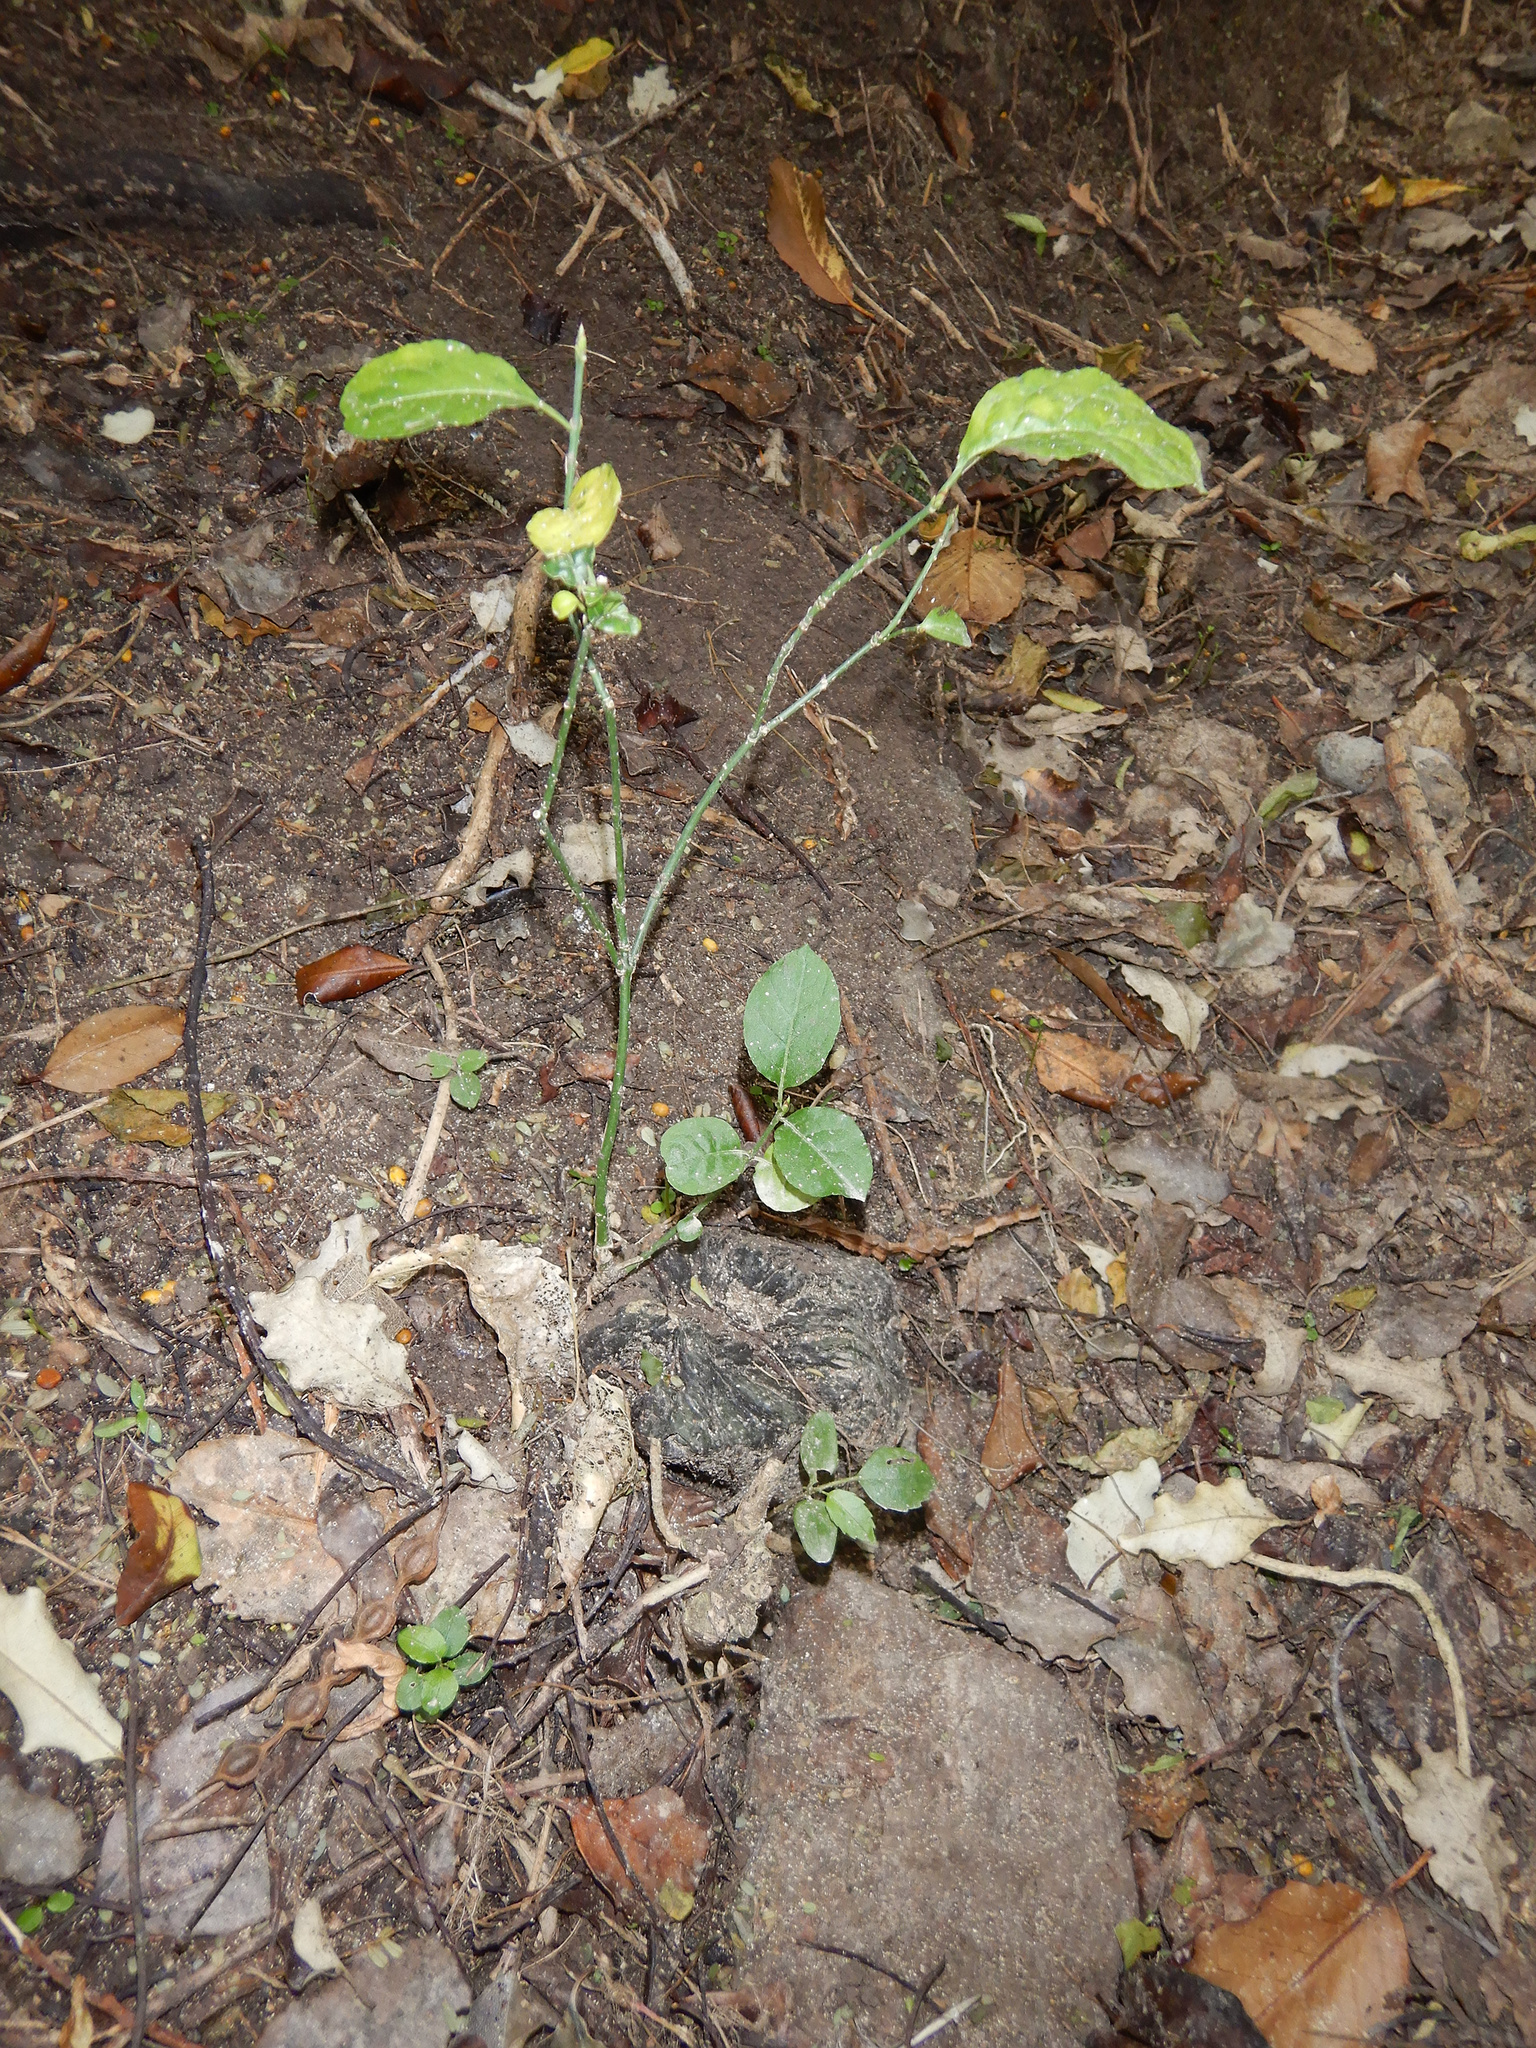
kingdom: Plantae
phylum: Tracheophyta
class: Magnoliopsida
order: Celastrales
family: Celastraceae
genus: Euonymus
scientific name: Euonymus europaeus
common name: Spindle
